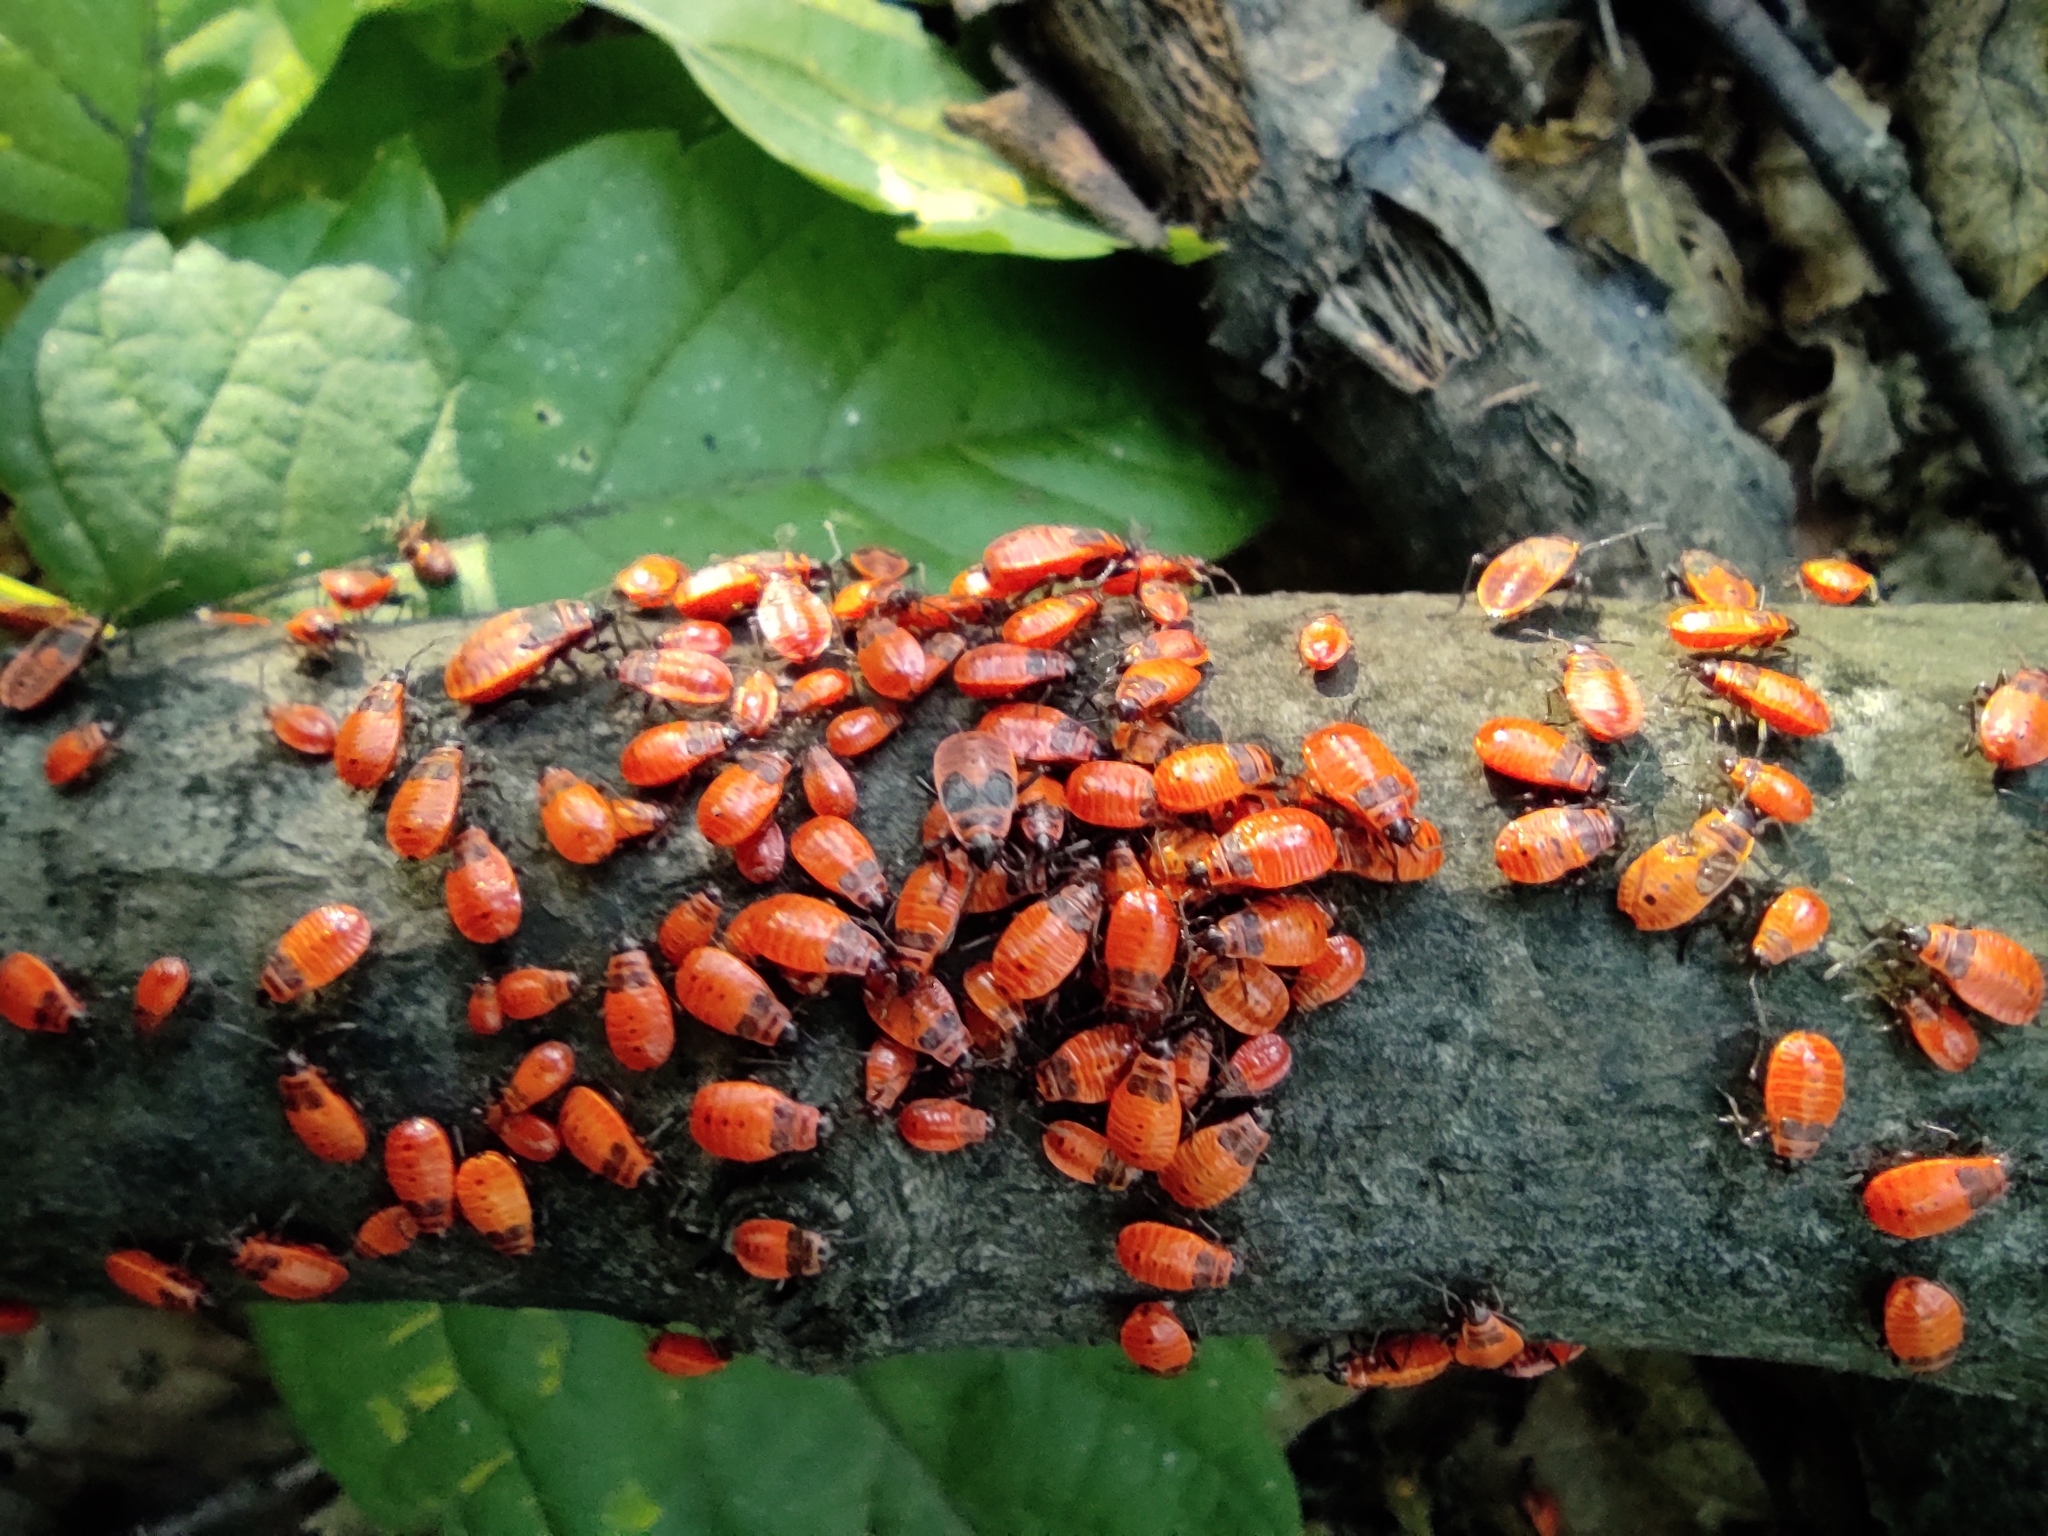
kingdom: Animalia
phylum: Arthropoda
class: Insecta
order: Hemiptera
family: Pyrrhocoridae
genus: Pyrrhocoris
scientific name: Pyrrhocoris apterus
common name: Firebug
